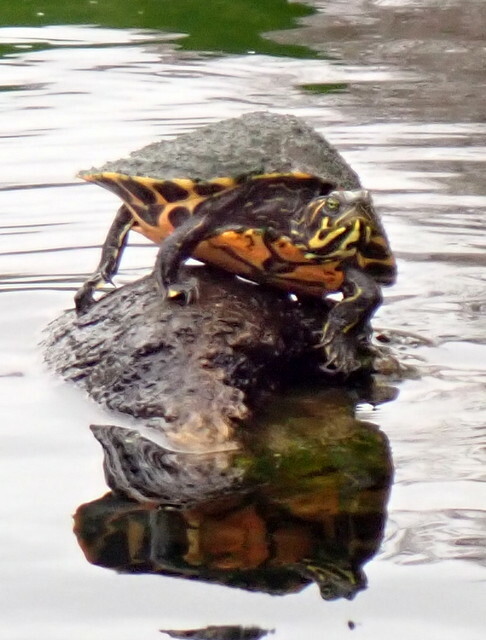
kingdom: Animalia
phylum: Chordata
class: Testudines
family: Emydidae
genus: Pseudemys
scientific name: Pseudemys concinna
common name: Eastern river cooter
